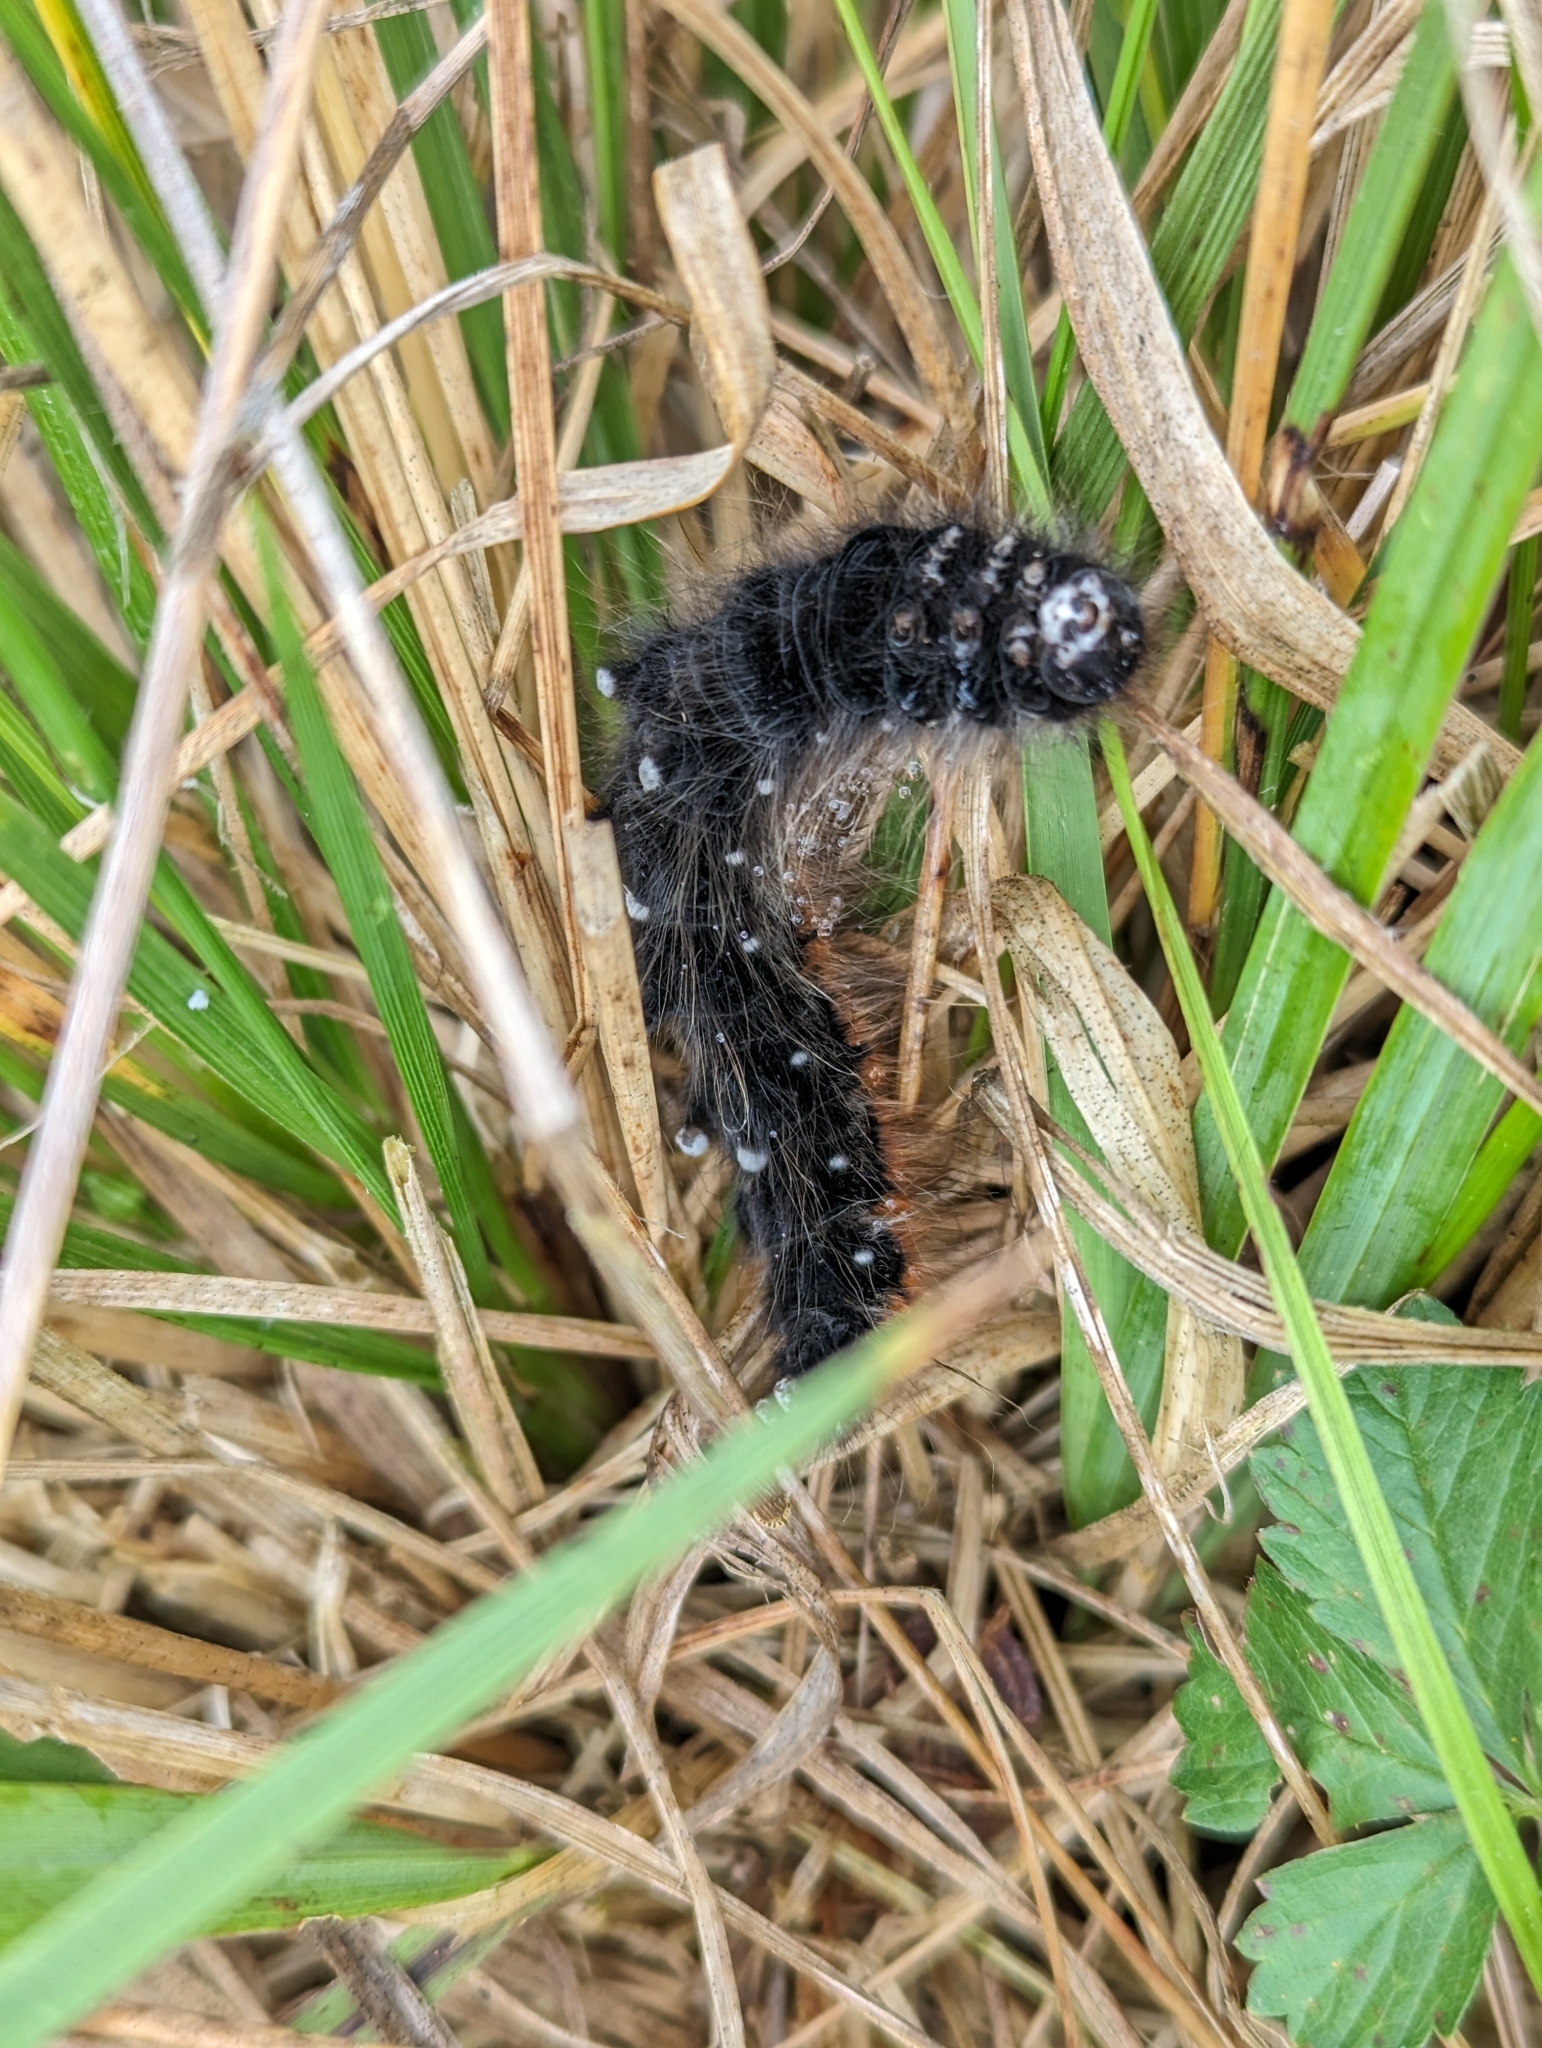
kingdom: Animalia
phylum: Arthropoda
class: Insecta
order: Lepidoptera
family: Lasiocampidae
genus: Macrothylacia
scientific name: Macrothylacia rubi
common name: Fox moth
